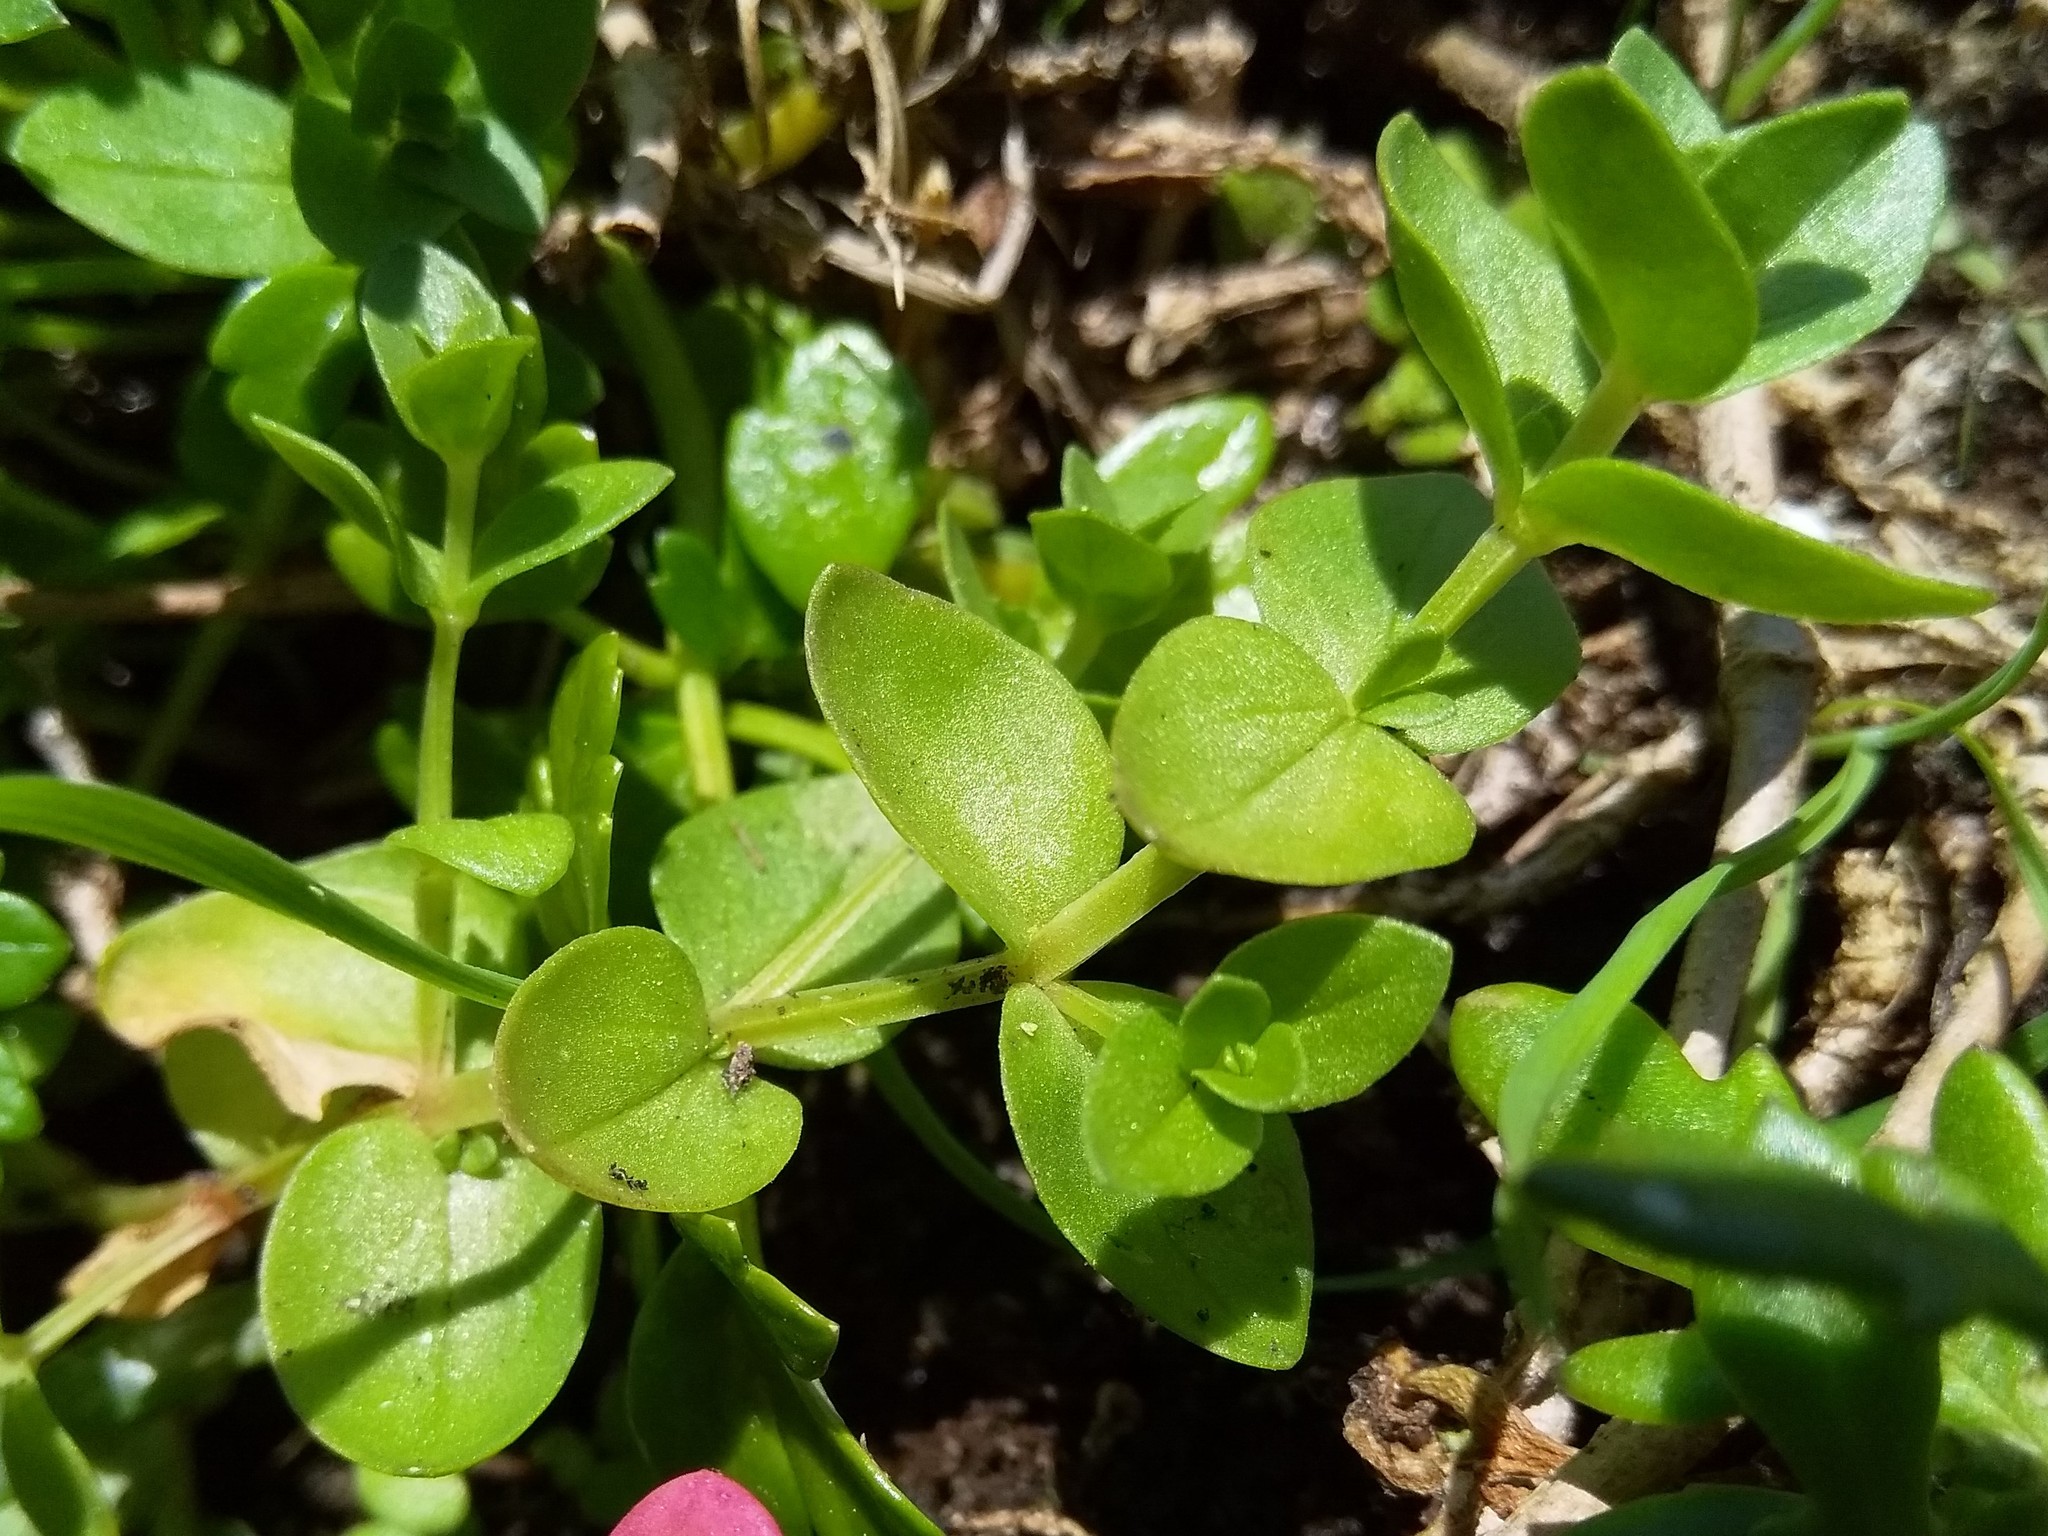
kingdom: Plantae
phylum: Tracheophyta
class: Magnoliopsida
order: Ericales
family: Primulaceae
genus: Lysimachia
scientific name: Lysimachia arvensis
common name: Scarlet pimpernel
